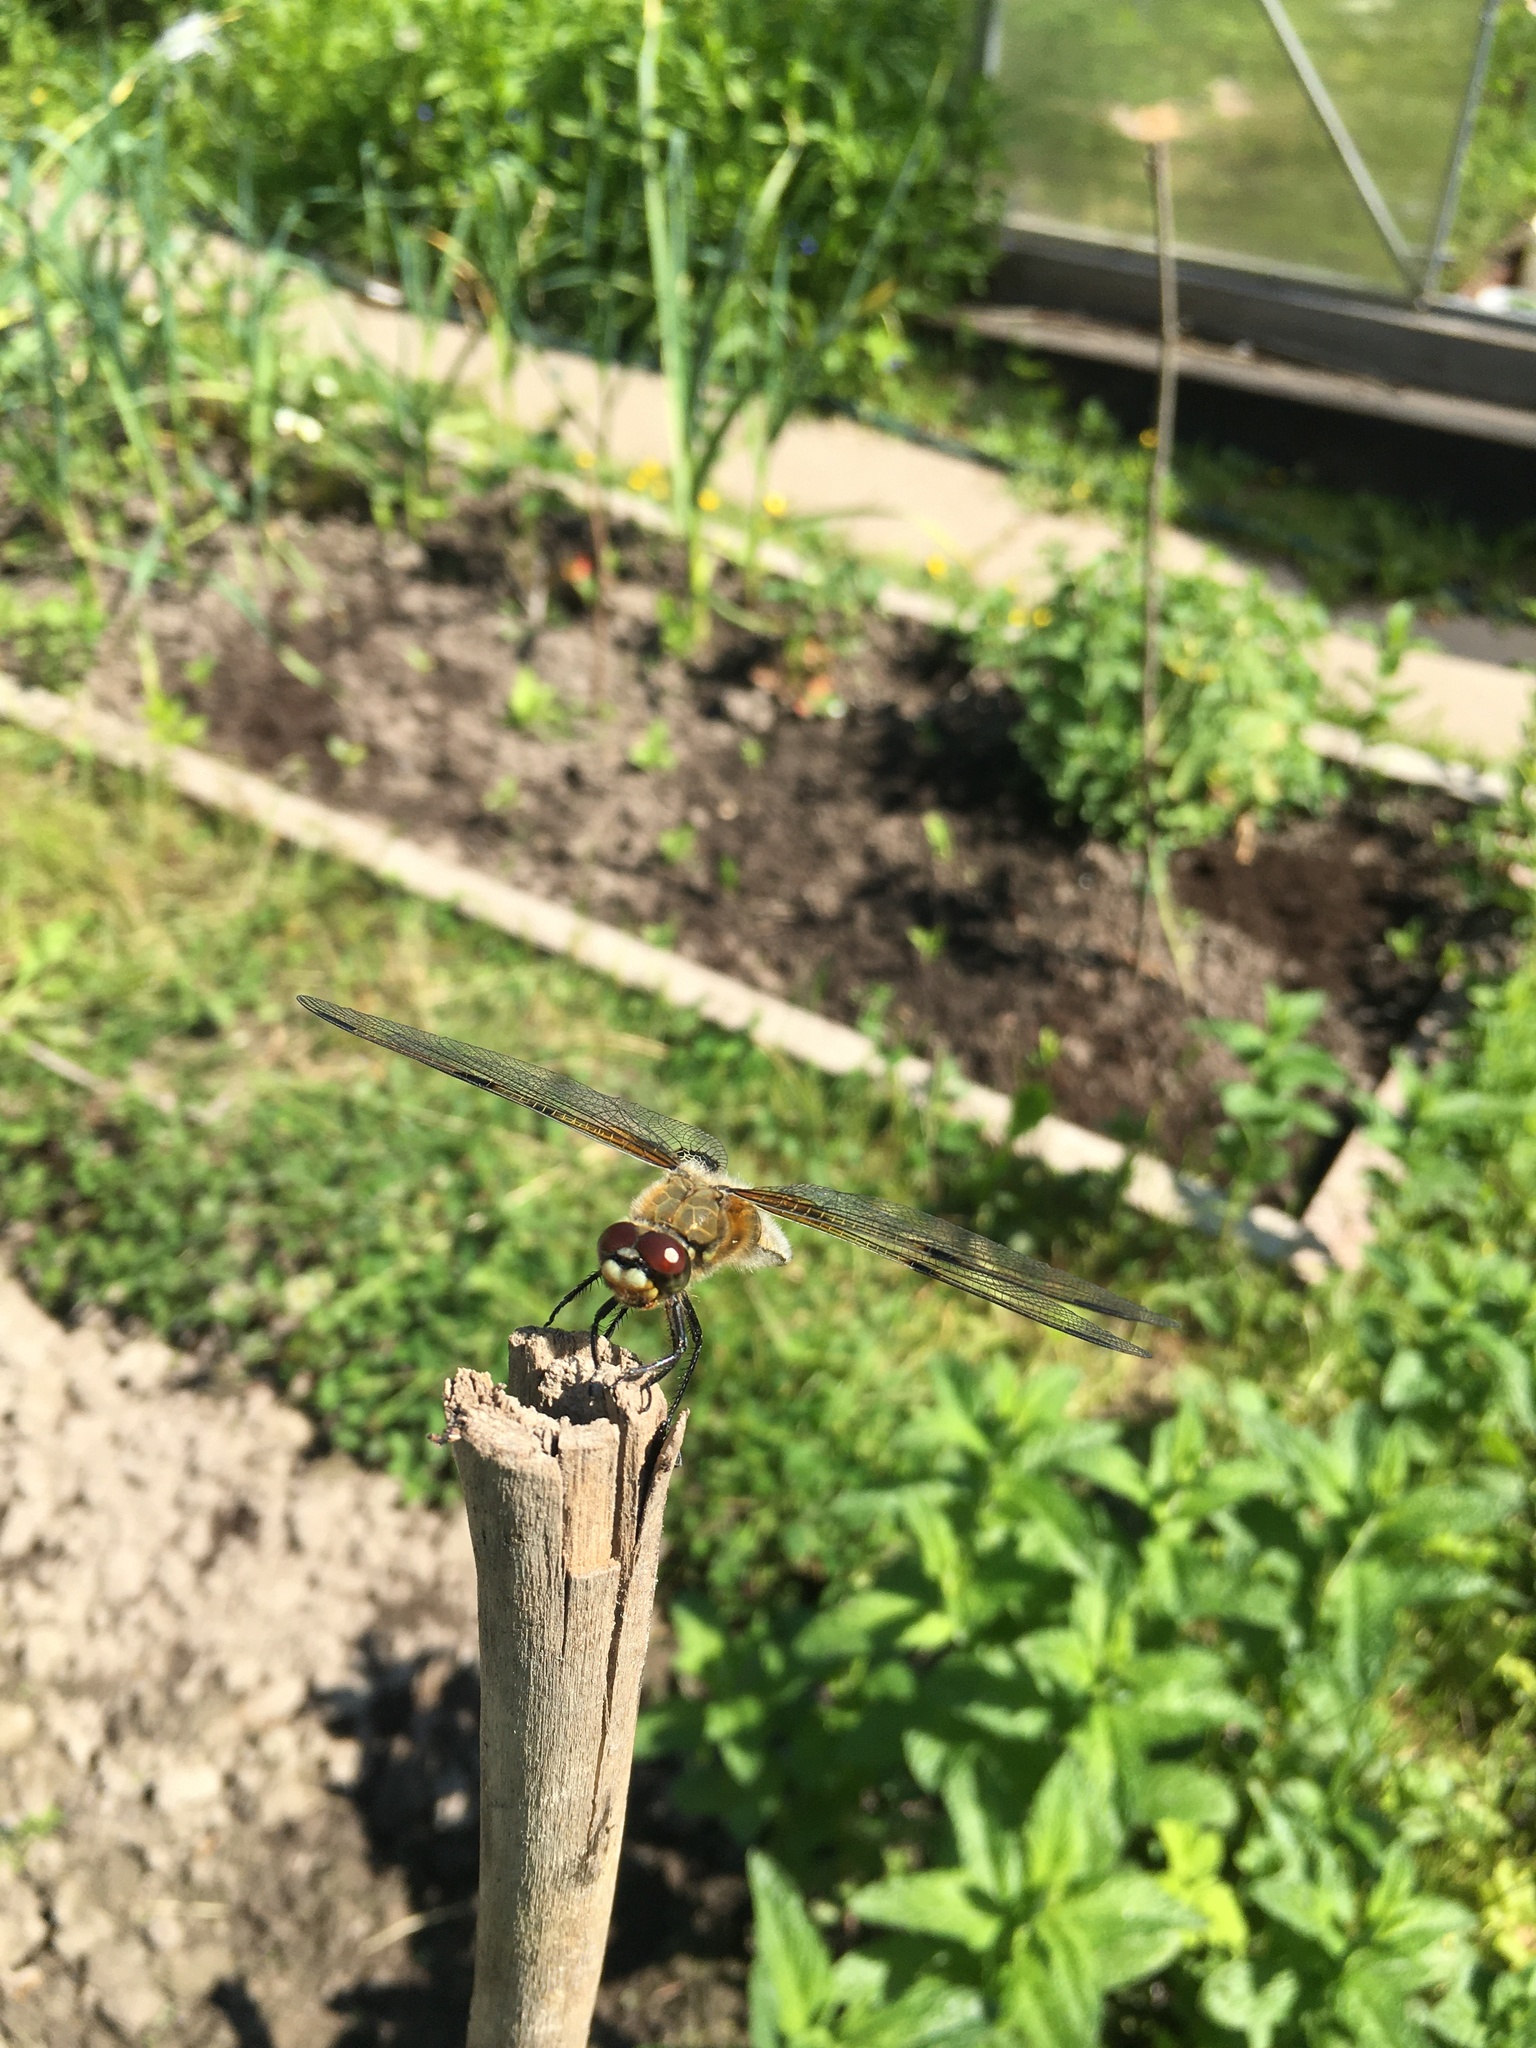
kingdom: Animalia
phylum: Arthropoda
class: Insecta
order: Odonata
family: Libellulidae
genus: Libellula
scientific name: Libellula quadrimaculata
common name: Four-spotted chaser
